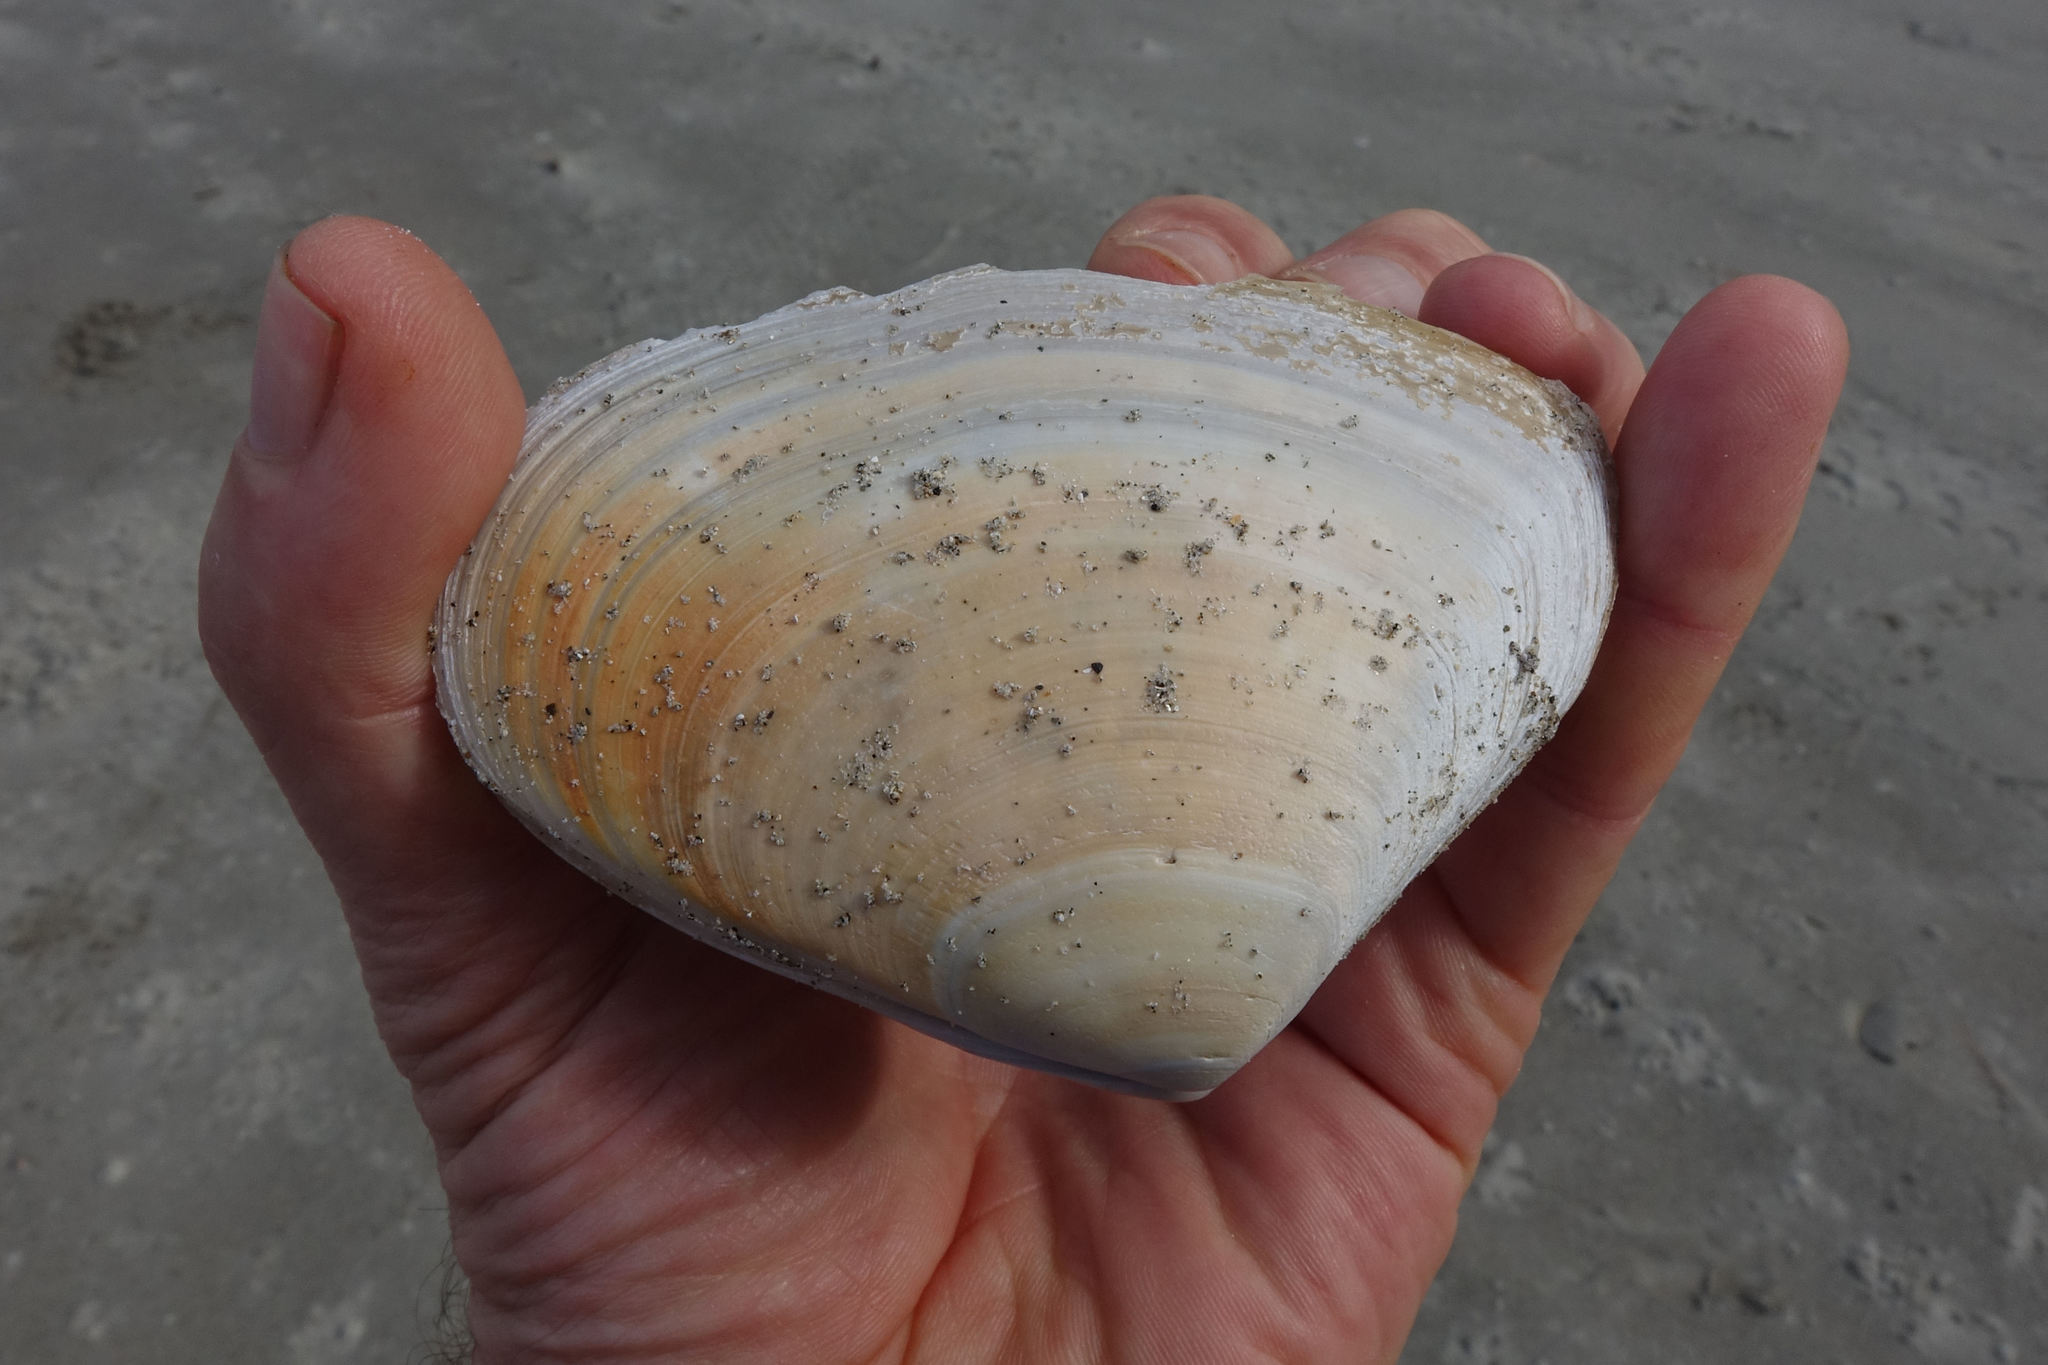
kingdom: Animalia
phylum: Mollusca
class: Bivalvia
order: Venerida
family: Mesodesmatidae
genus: Paphies
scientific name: Paphies donacina
